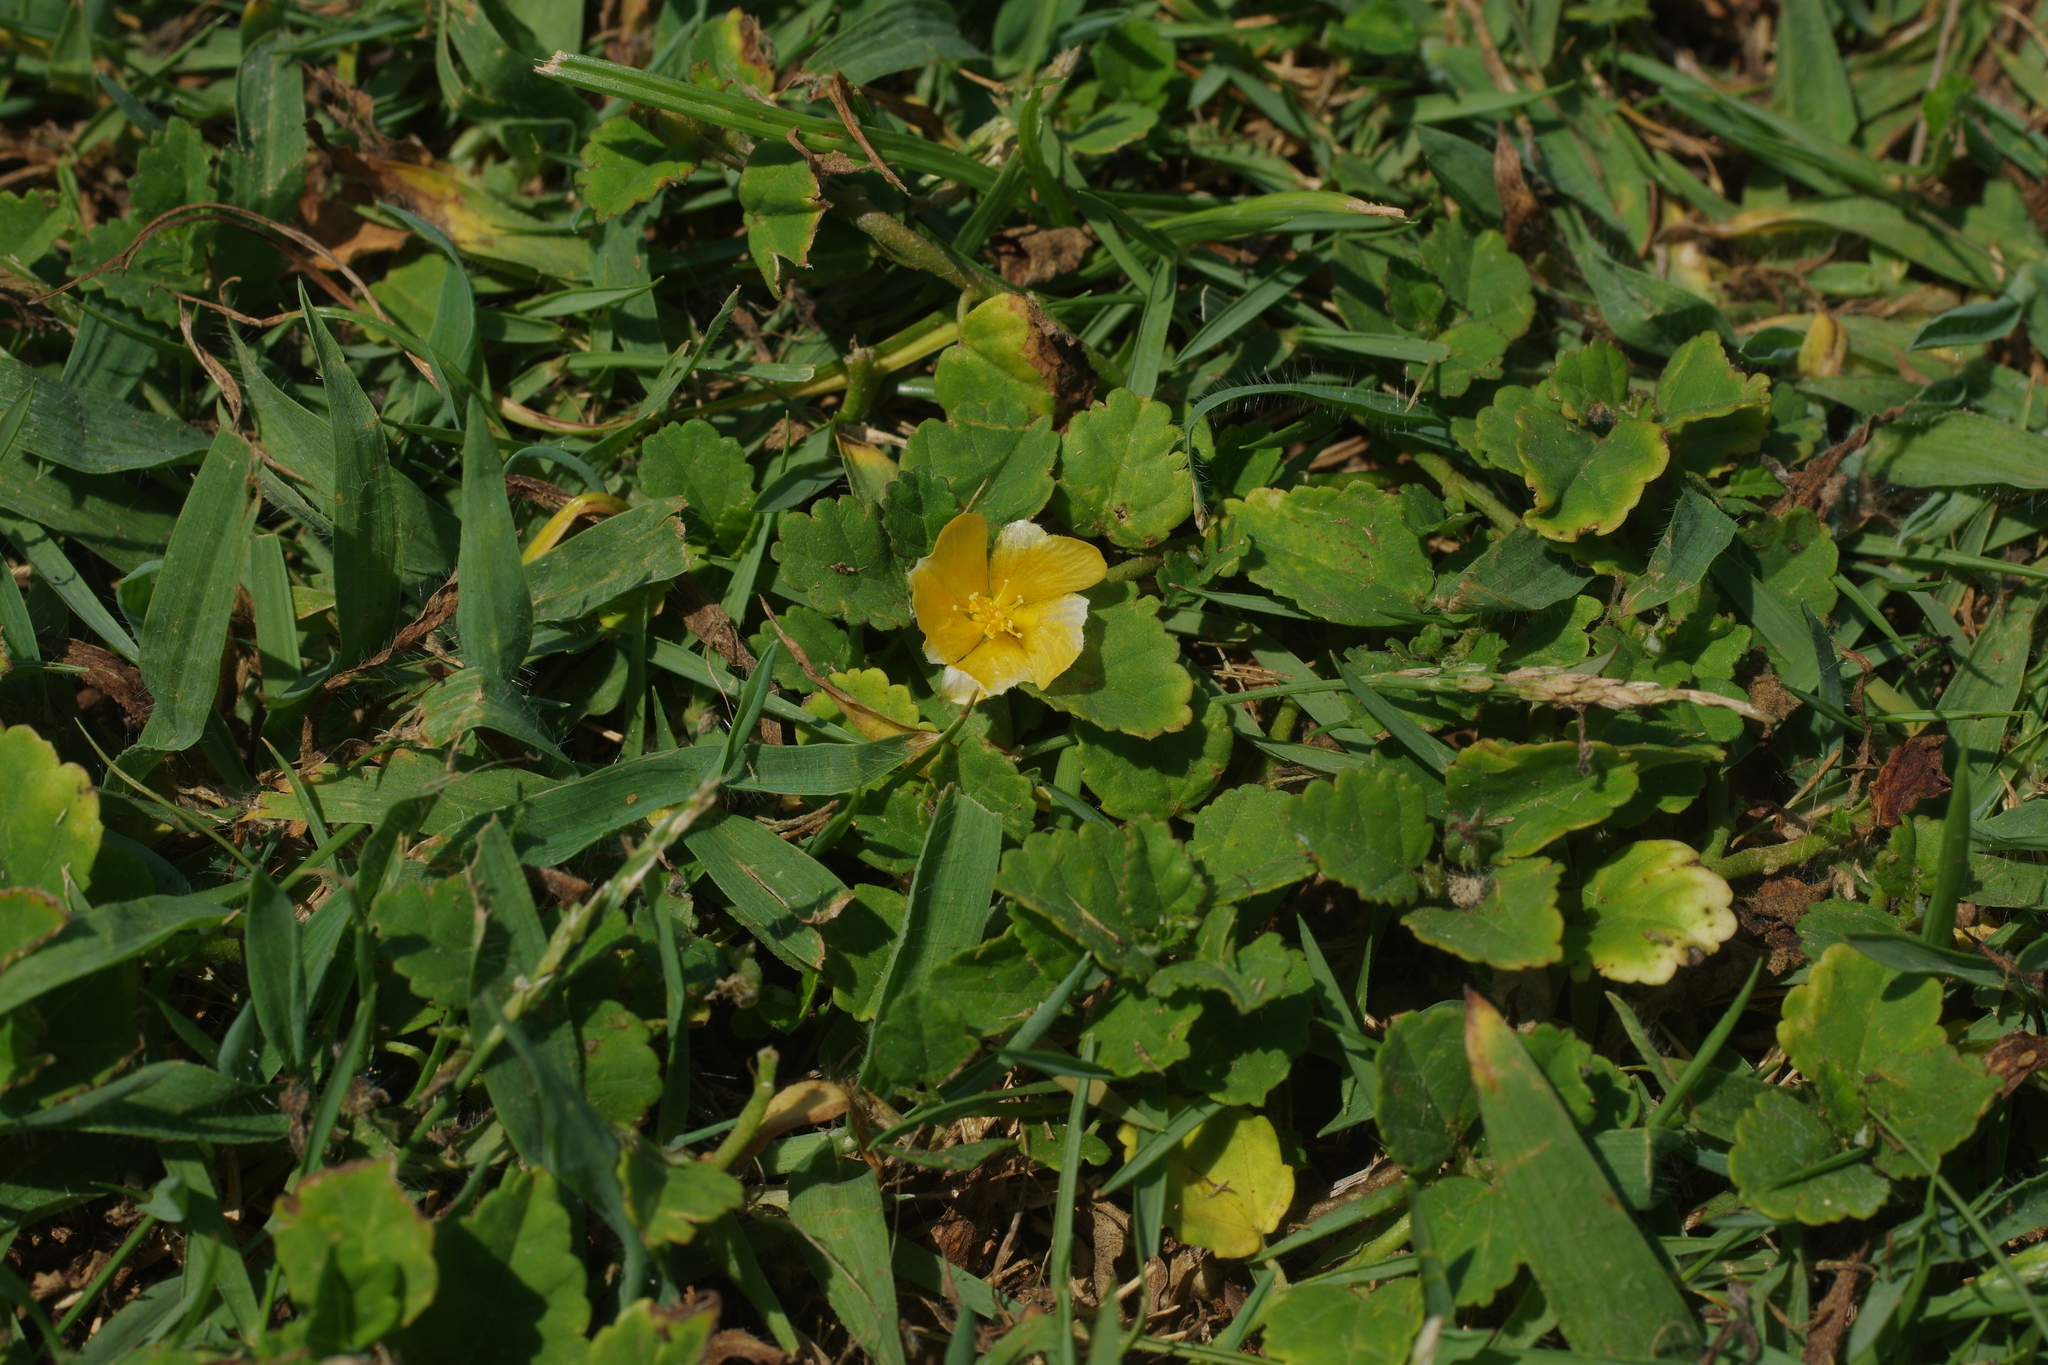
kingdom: Plantae
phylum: Tracheophyta
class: Magnoliopsida
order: Malvales
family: Malvaceae
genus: Sida
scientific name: Sida rhombifolia
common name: Queensland-hemp
